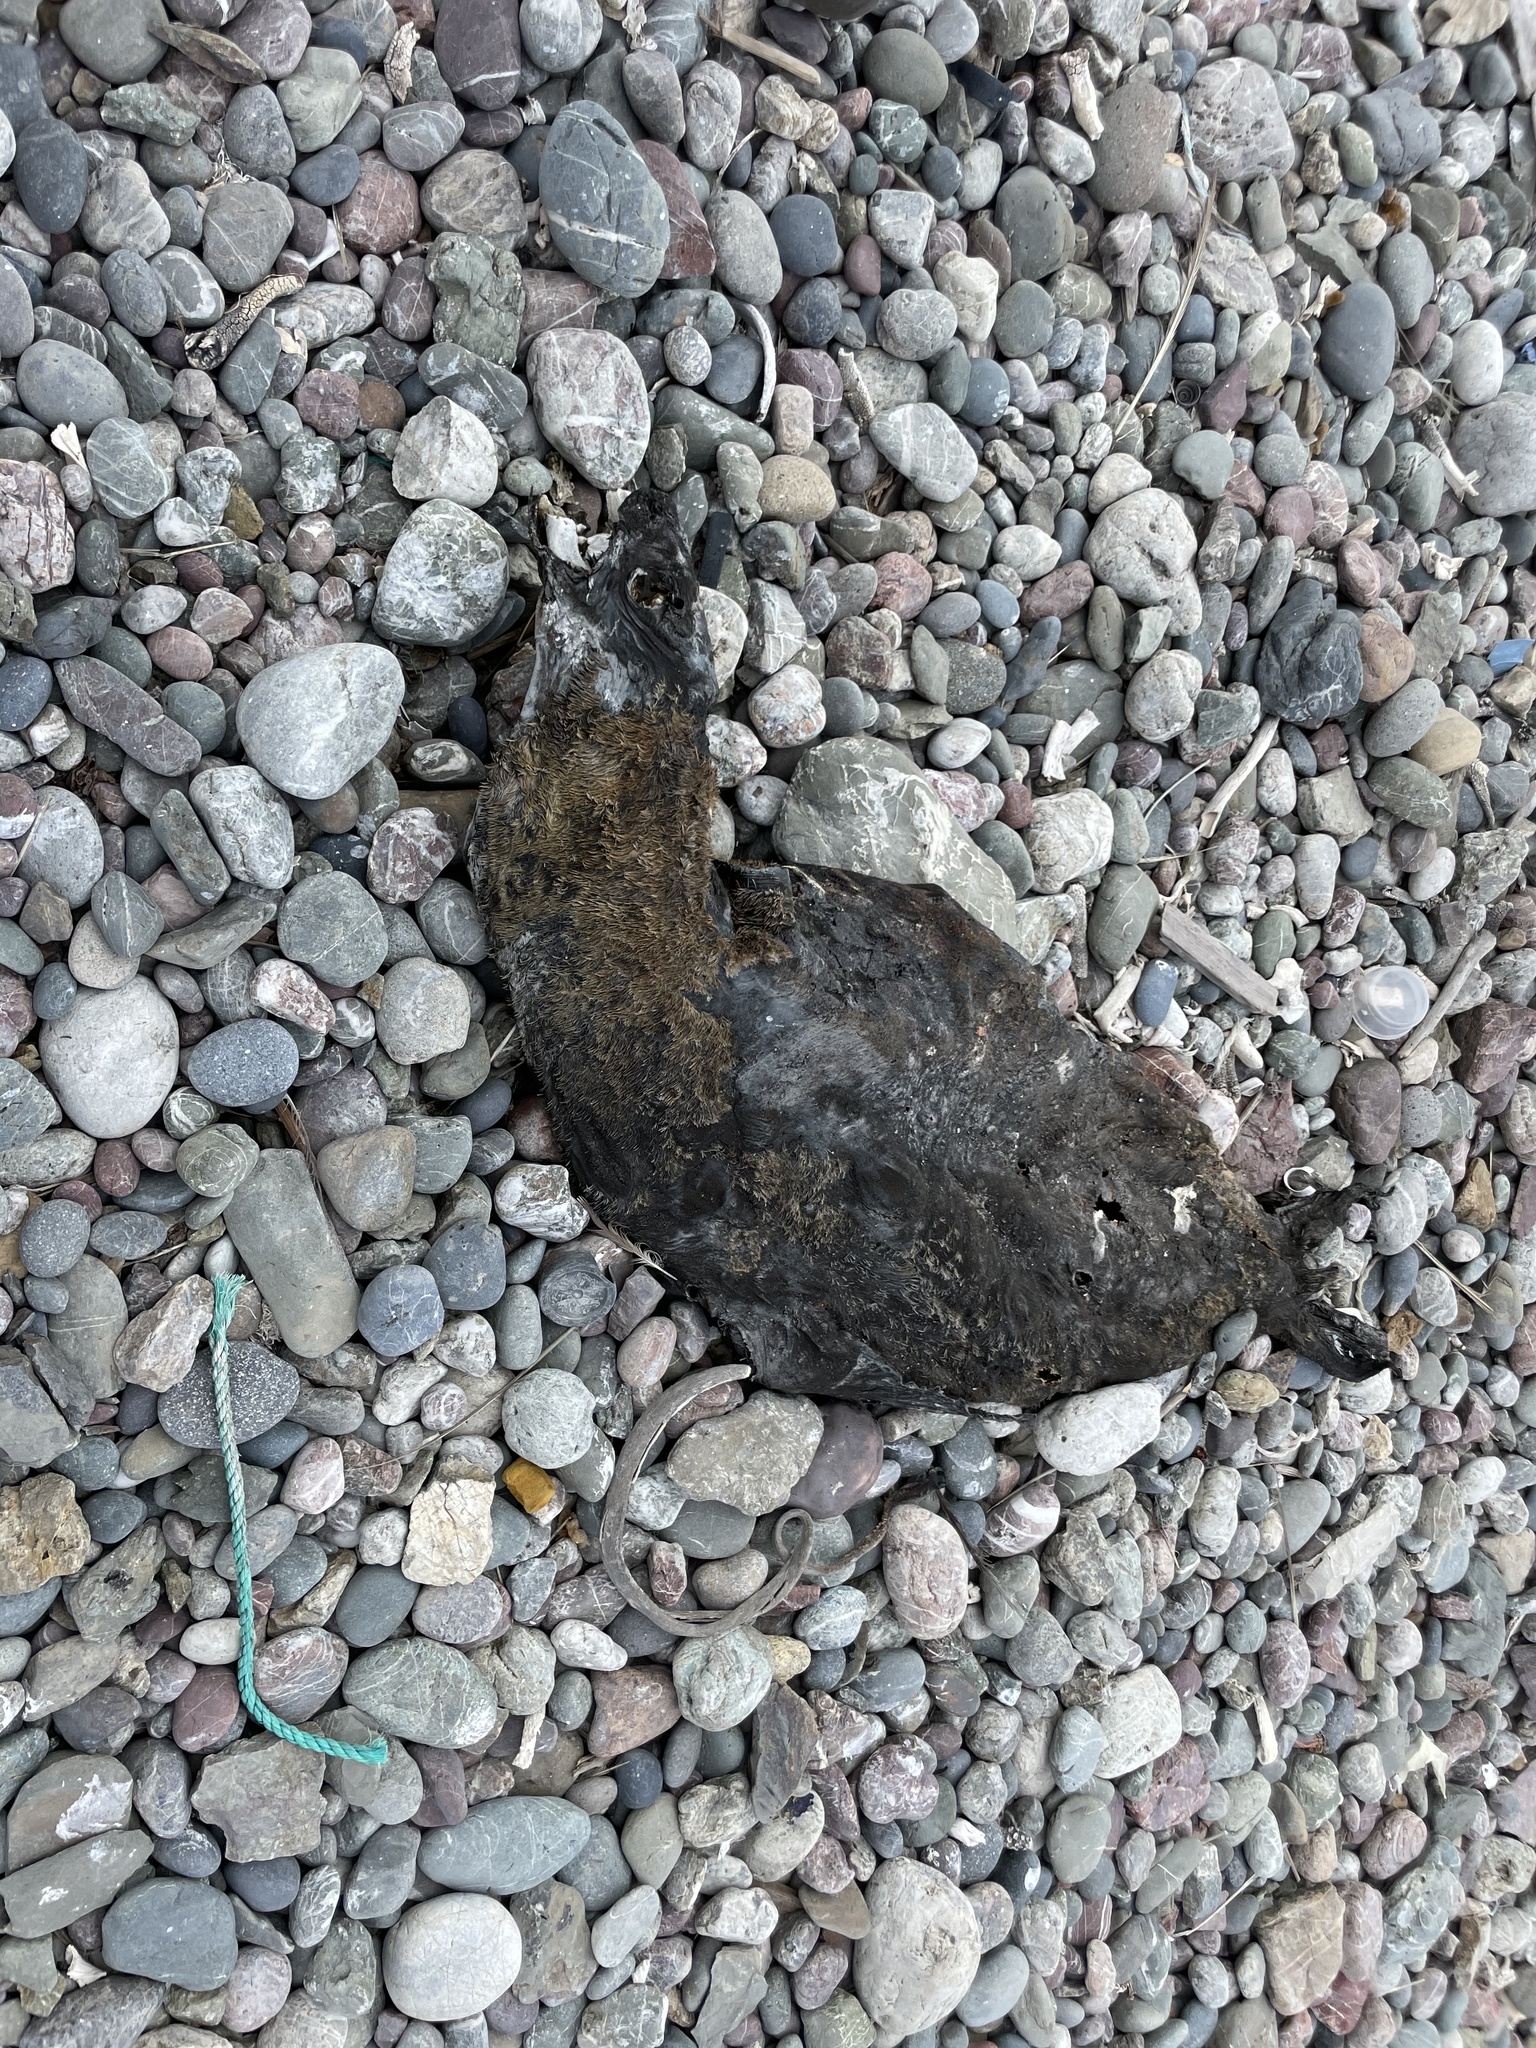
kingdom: Animalia
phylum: Chordata
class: Mammalia
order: Carnivora
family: Otariidae
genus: Zalophus
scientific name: Zalophus californianus
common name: California sea lion
